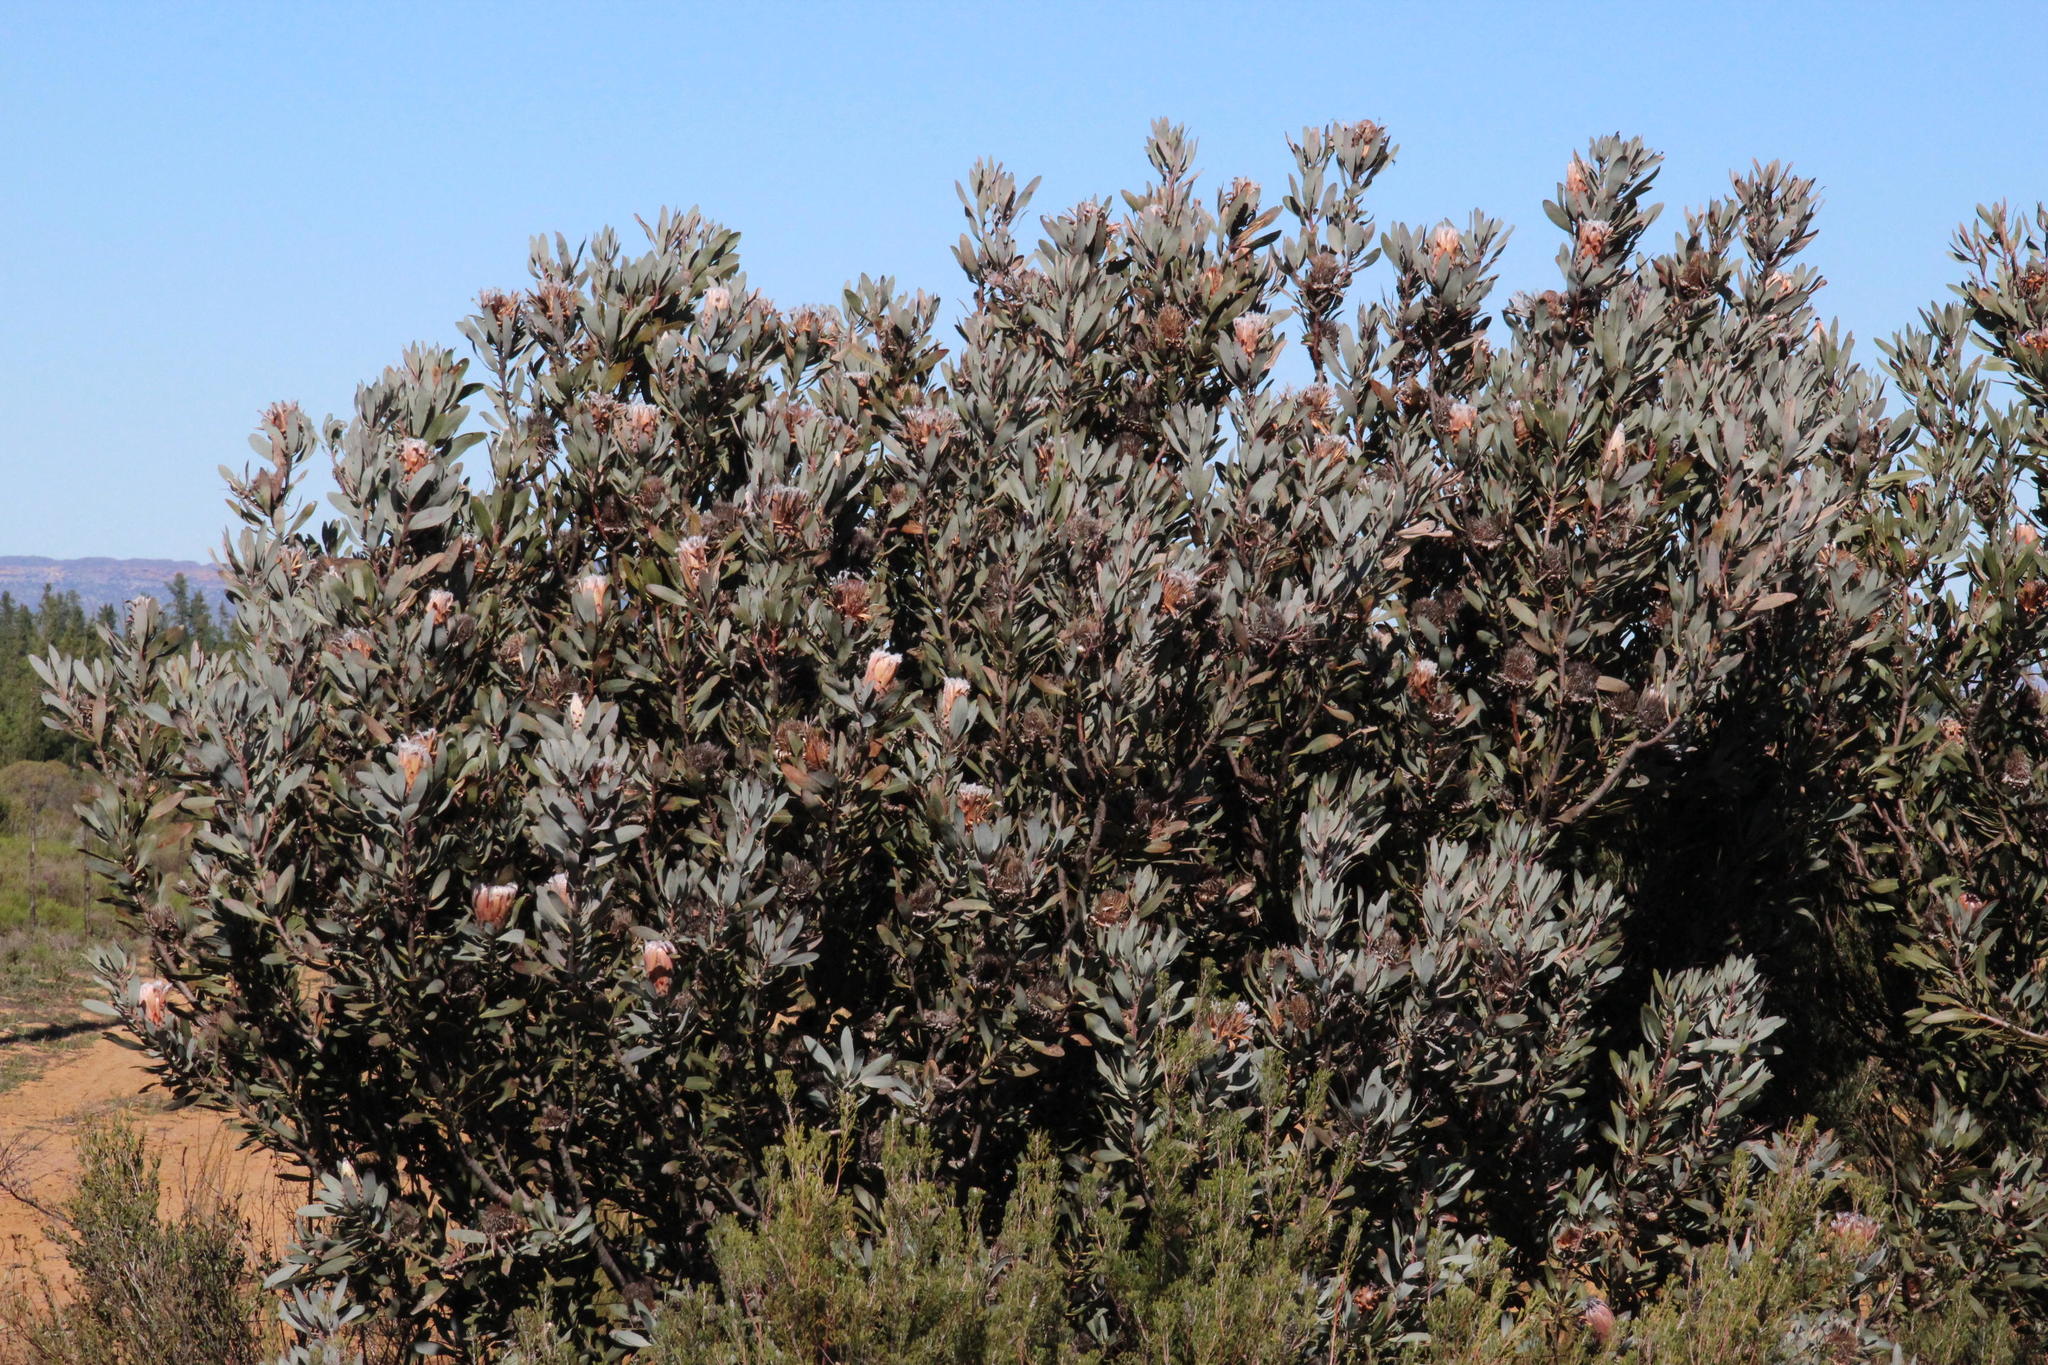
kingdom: Plantae
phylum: Tracheophyta
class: Magnoliopsida
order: Proteales
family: Proteaceae
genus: Protea
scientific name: Protea laurifolia
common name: Grey-leaf sugarbsh
